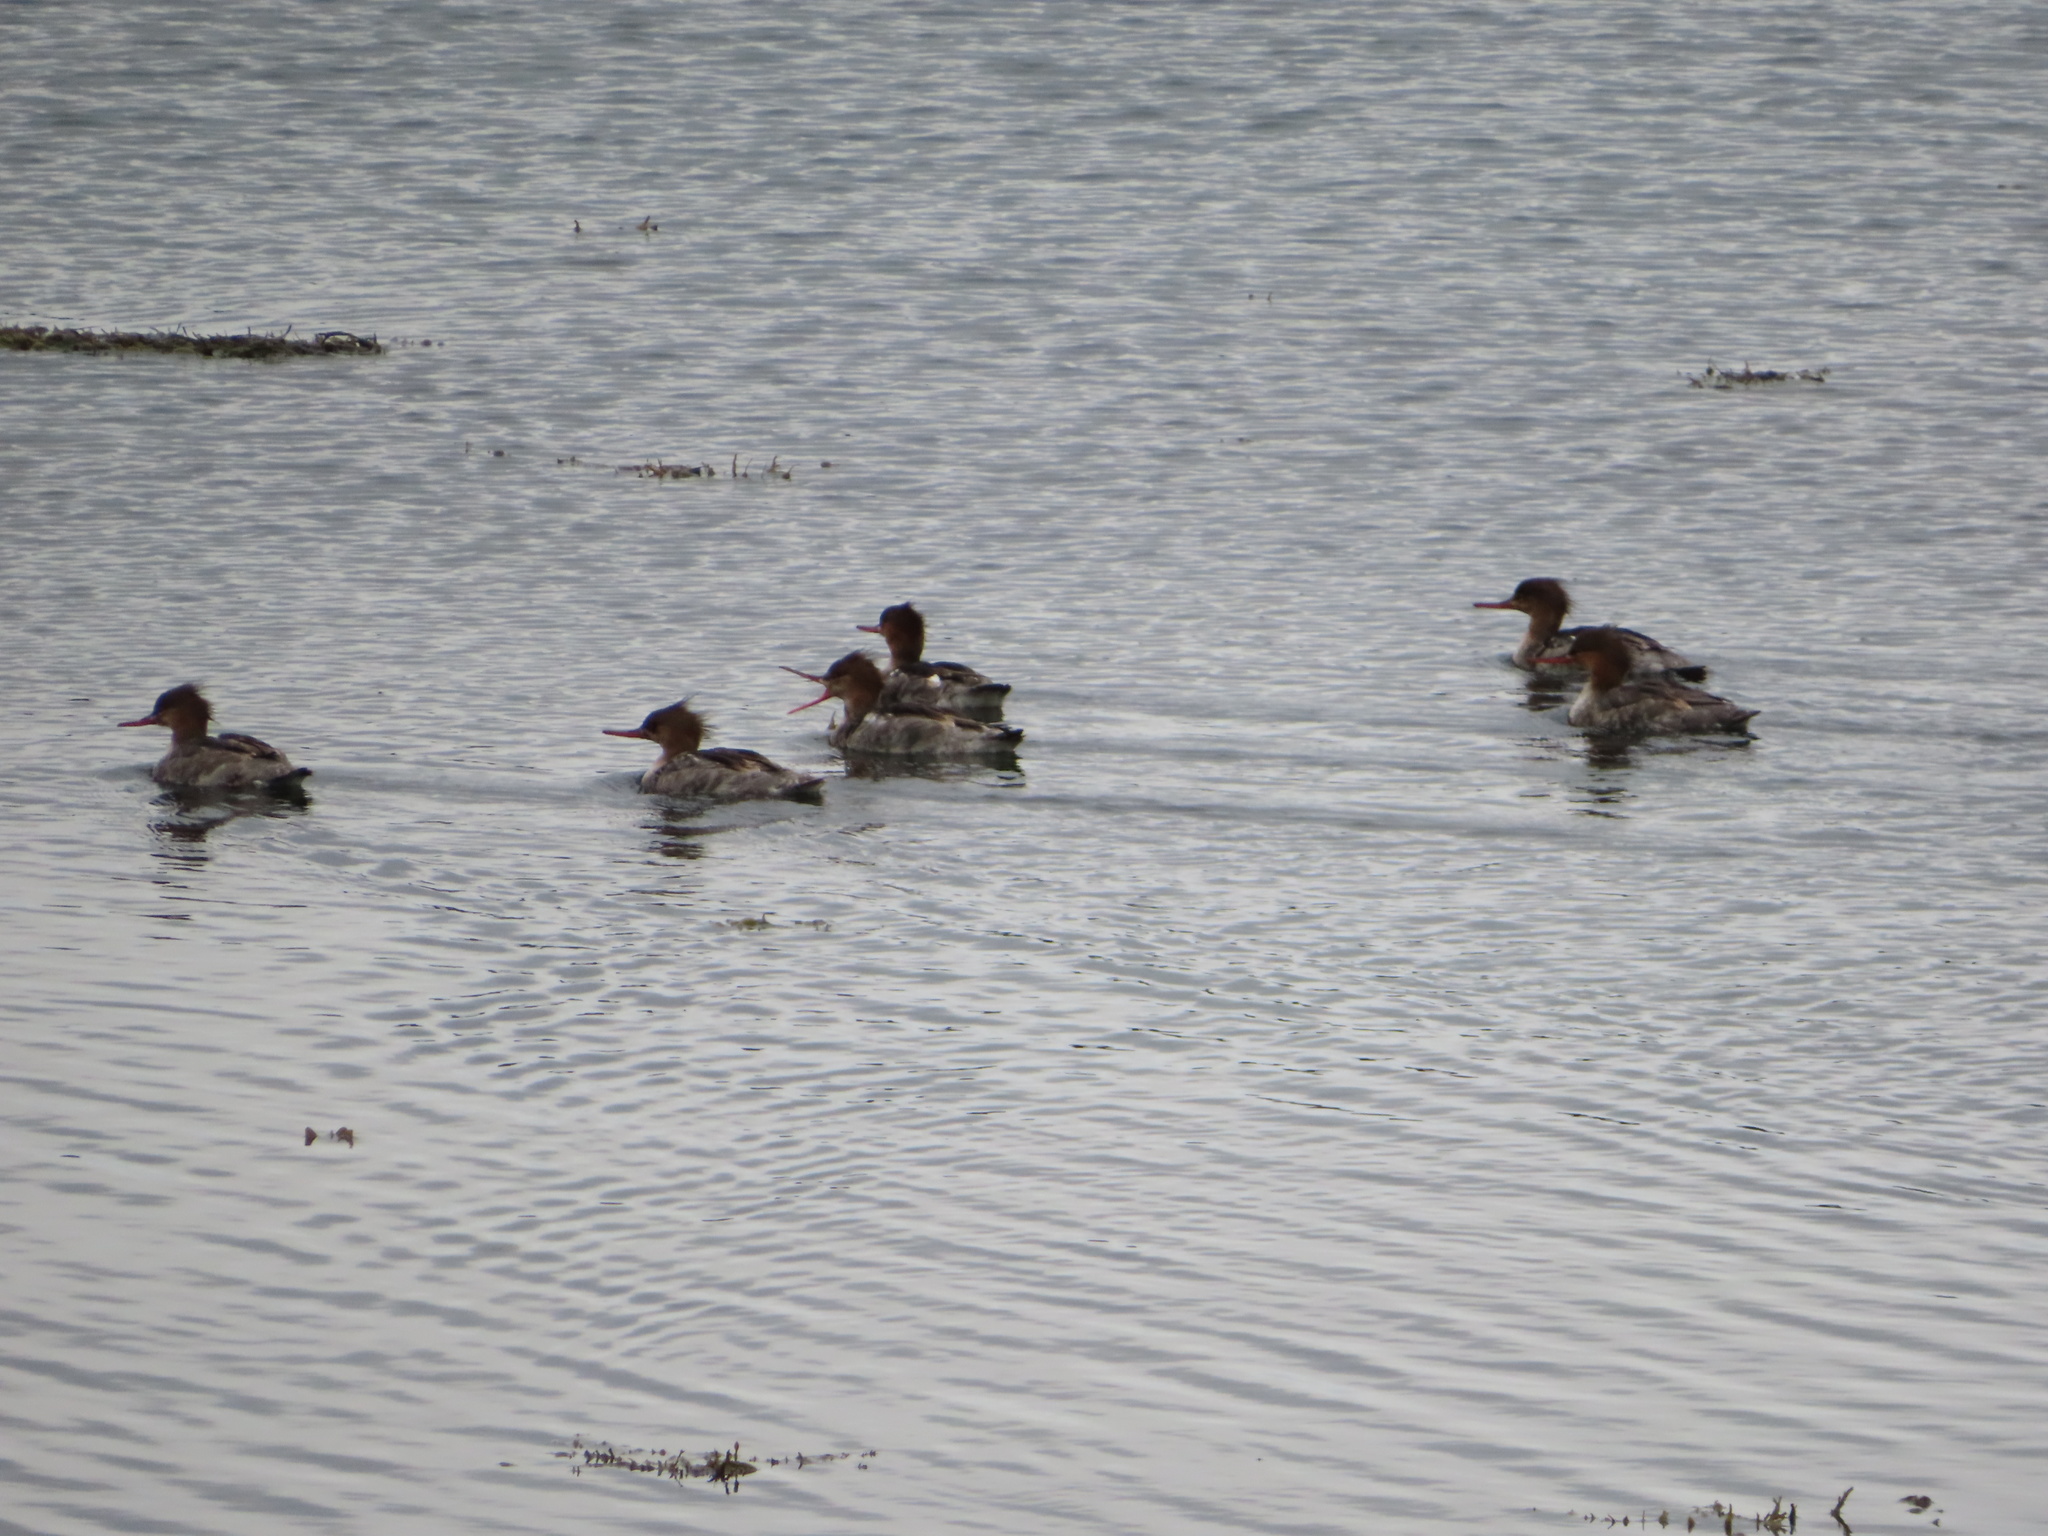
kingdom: Animalia
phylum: Chordata
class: Aves
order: Anseriformes
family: Anatidae
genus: Mergus
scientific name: Mergus serrator
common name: Red-breasted merganser
